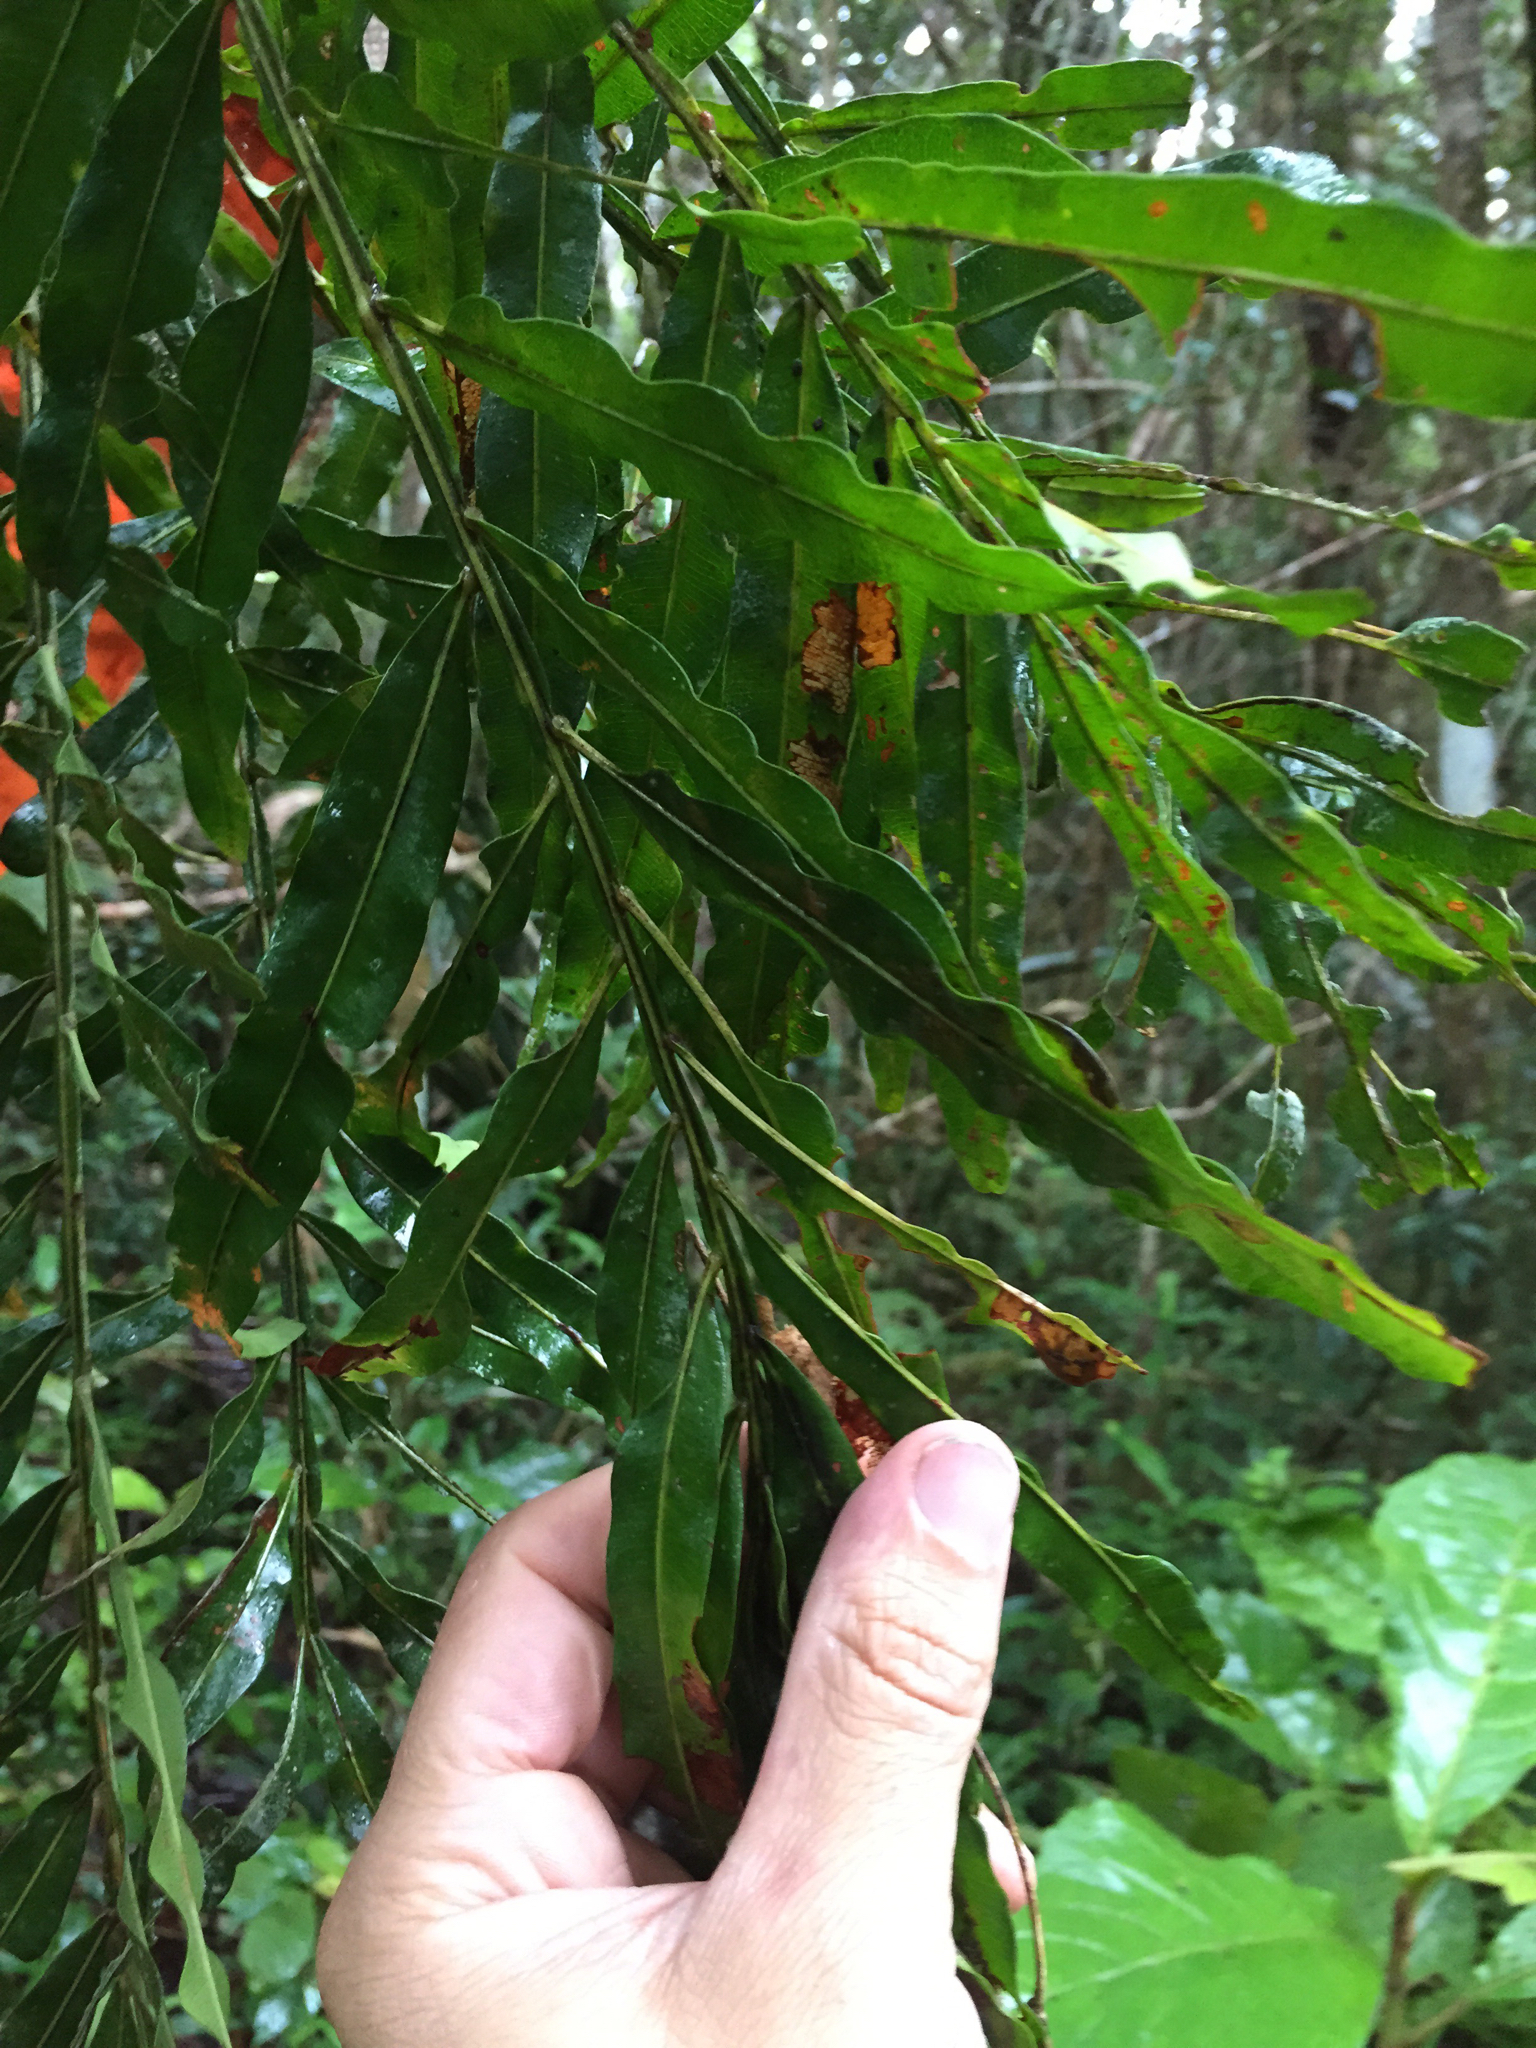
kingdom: Plantae
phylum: Tracheophyta
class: Magnoliopsida
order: Sapindales
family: Sapindaceae
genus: Filicium
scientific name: Filicium decipiens
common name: Ferntree
